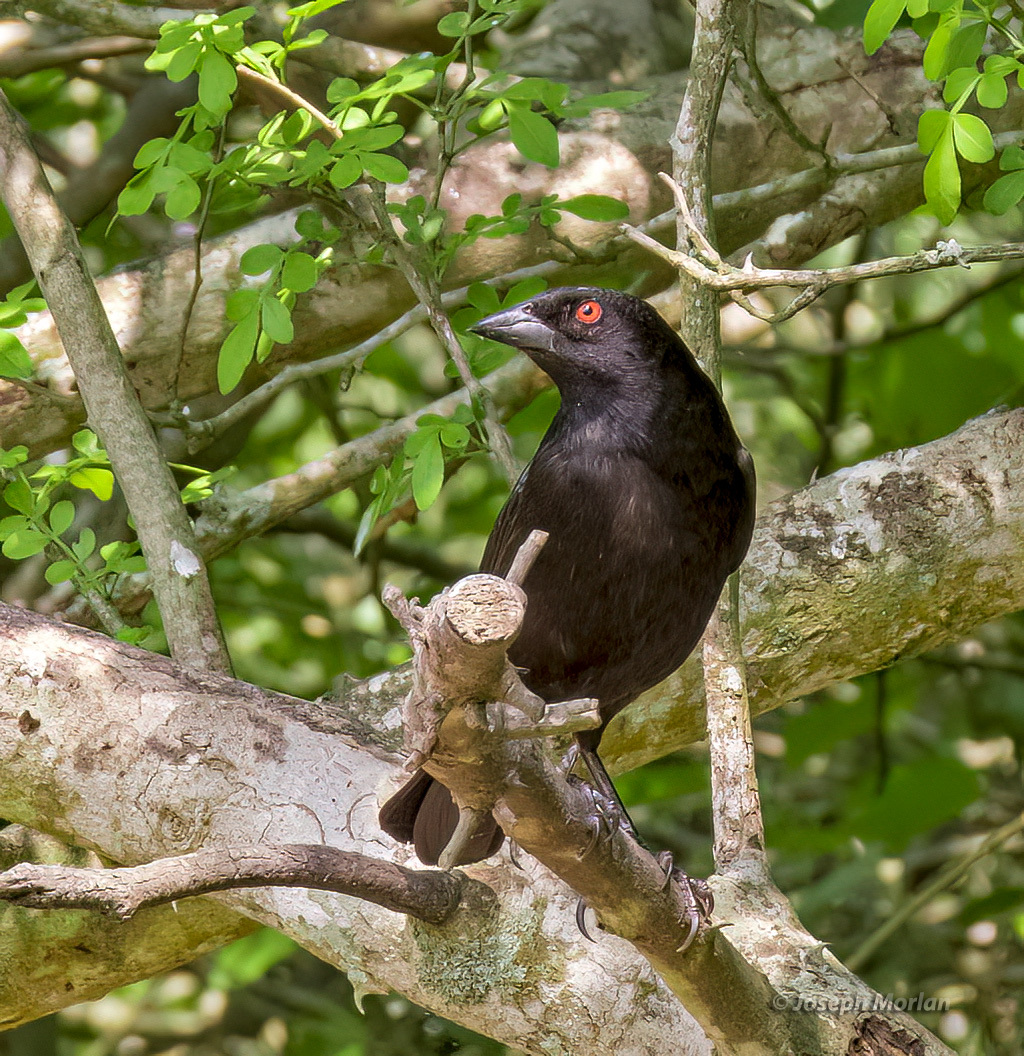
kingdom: Animalia
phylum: Chordata
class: Aves
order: Passeriformes
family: Icteridae
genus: Molothrus
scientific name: Molothrus aeneus
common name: Bronzed cowbird
